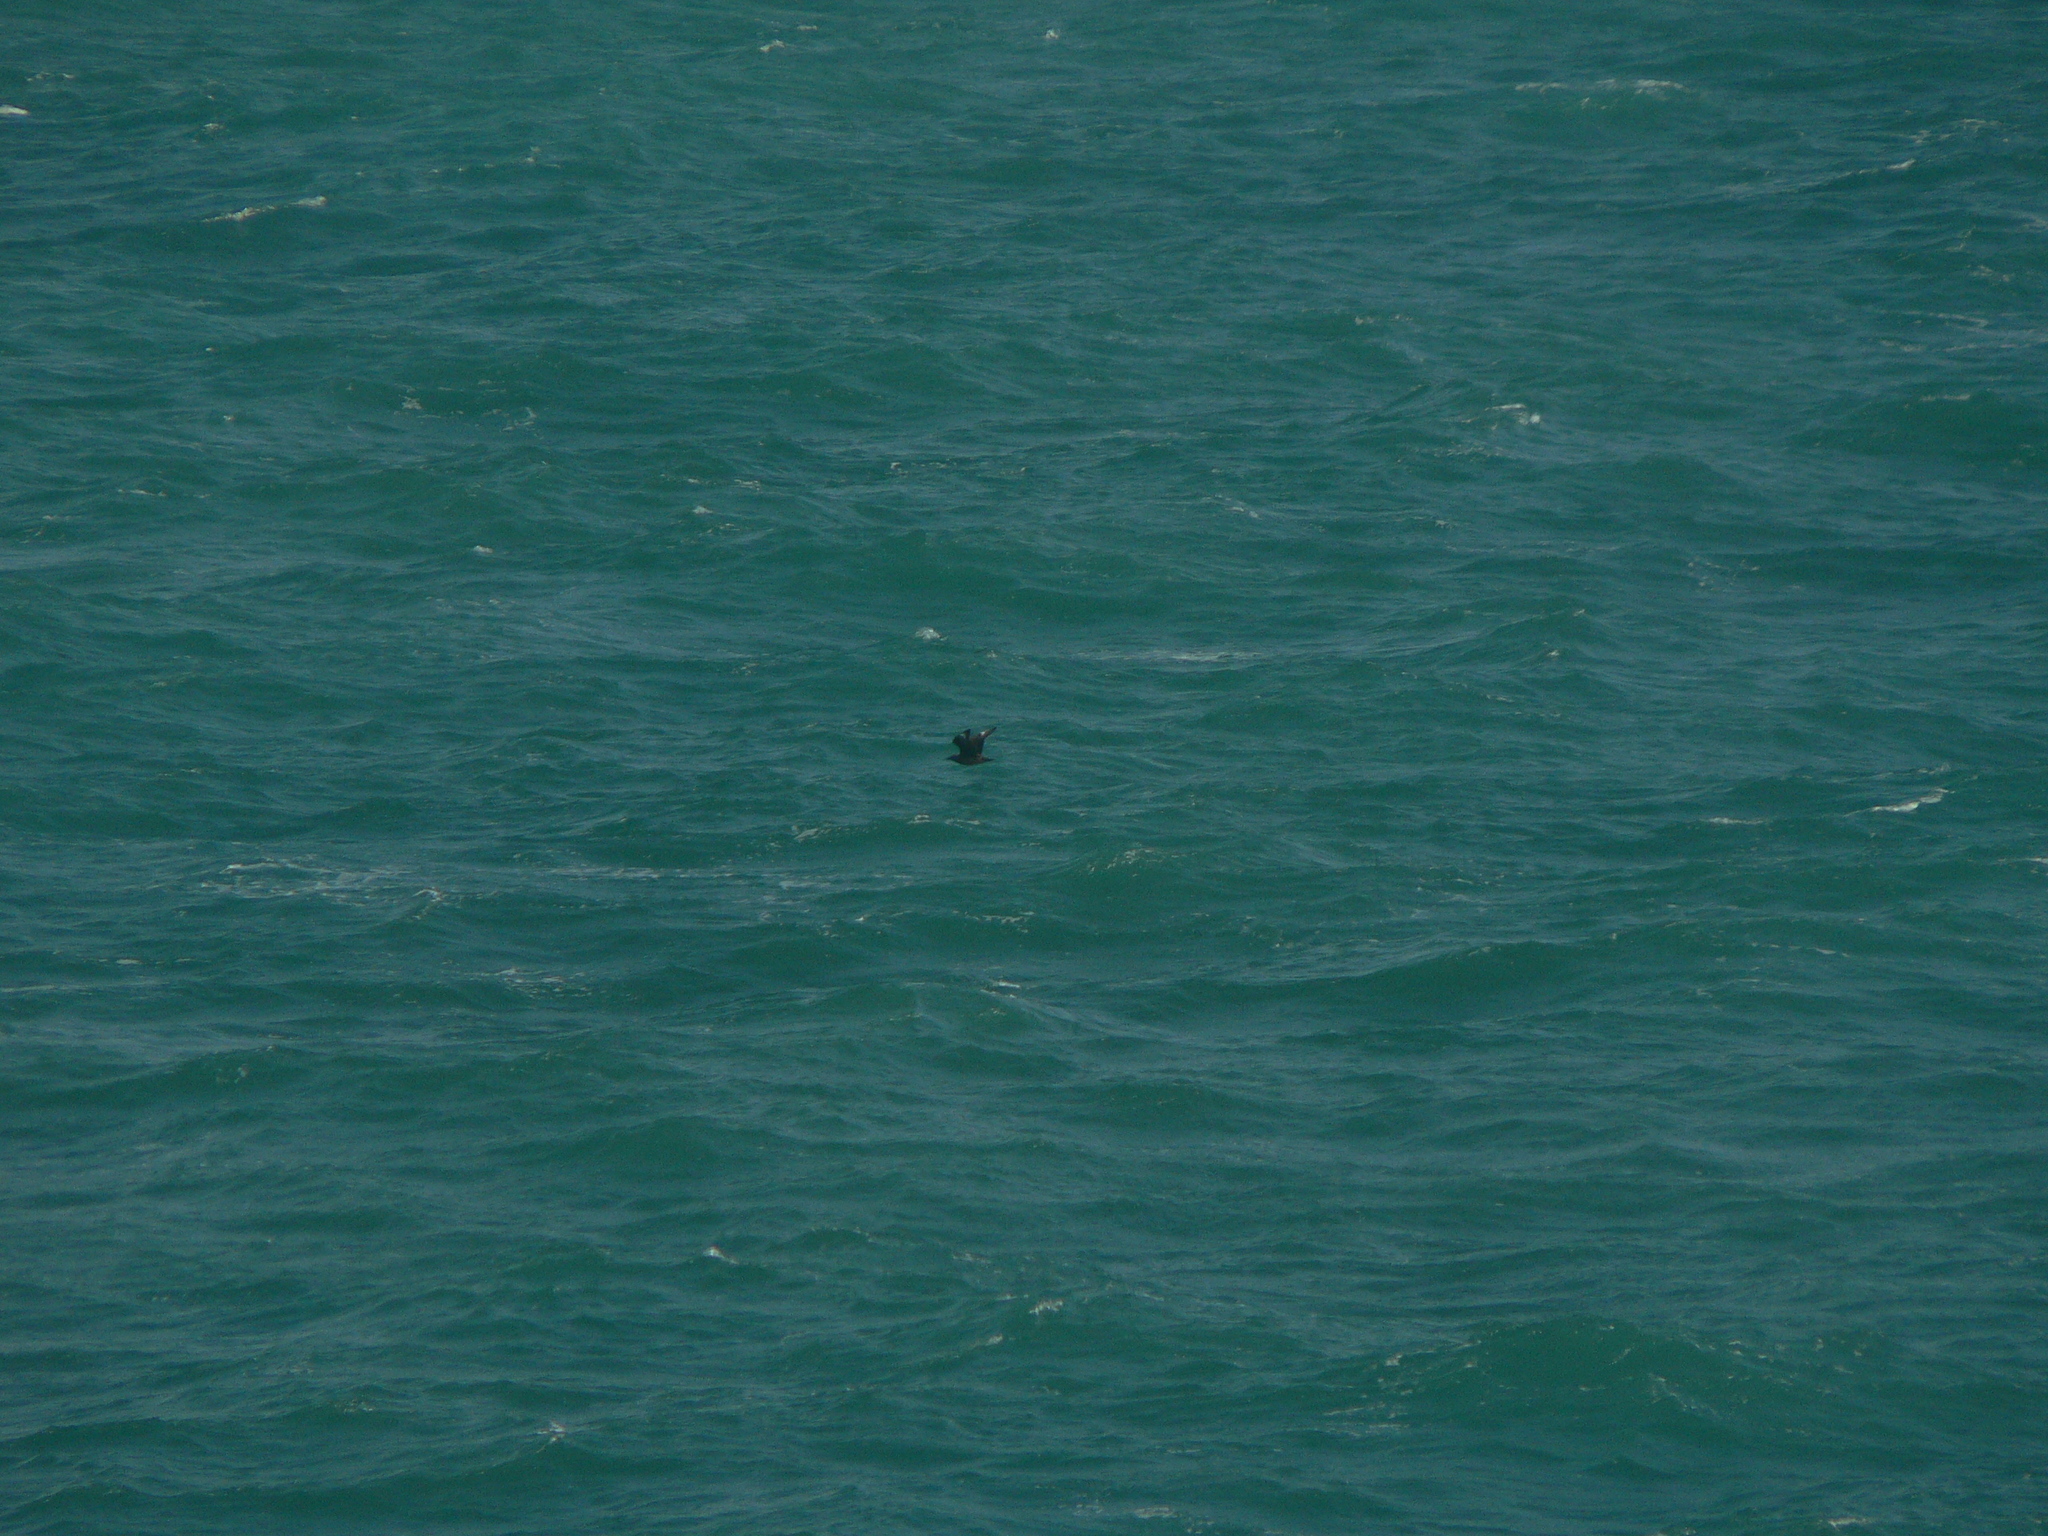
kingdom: Animalia
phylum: Chordata
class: Aves
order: Charadriiformes
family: Stercorariidae
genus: Stercorarius
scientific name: Stercorarius skua
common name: Great skua
